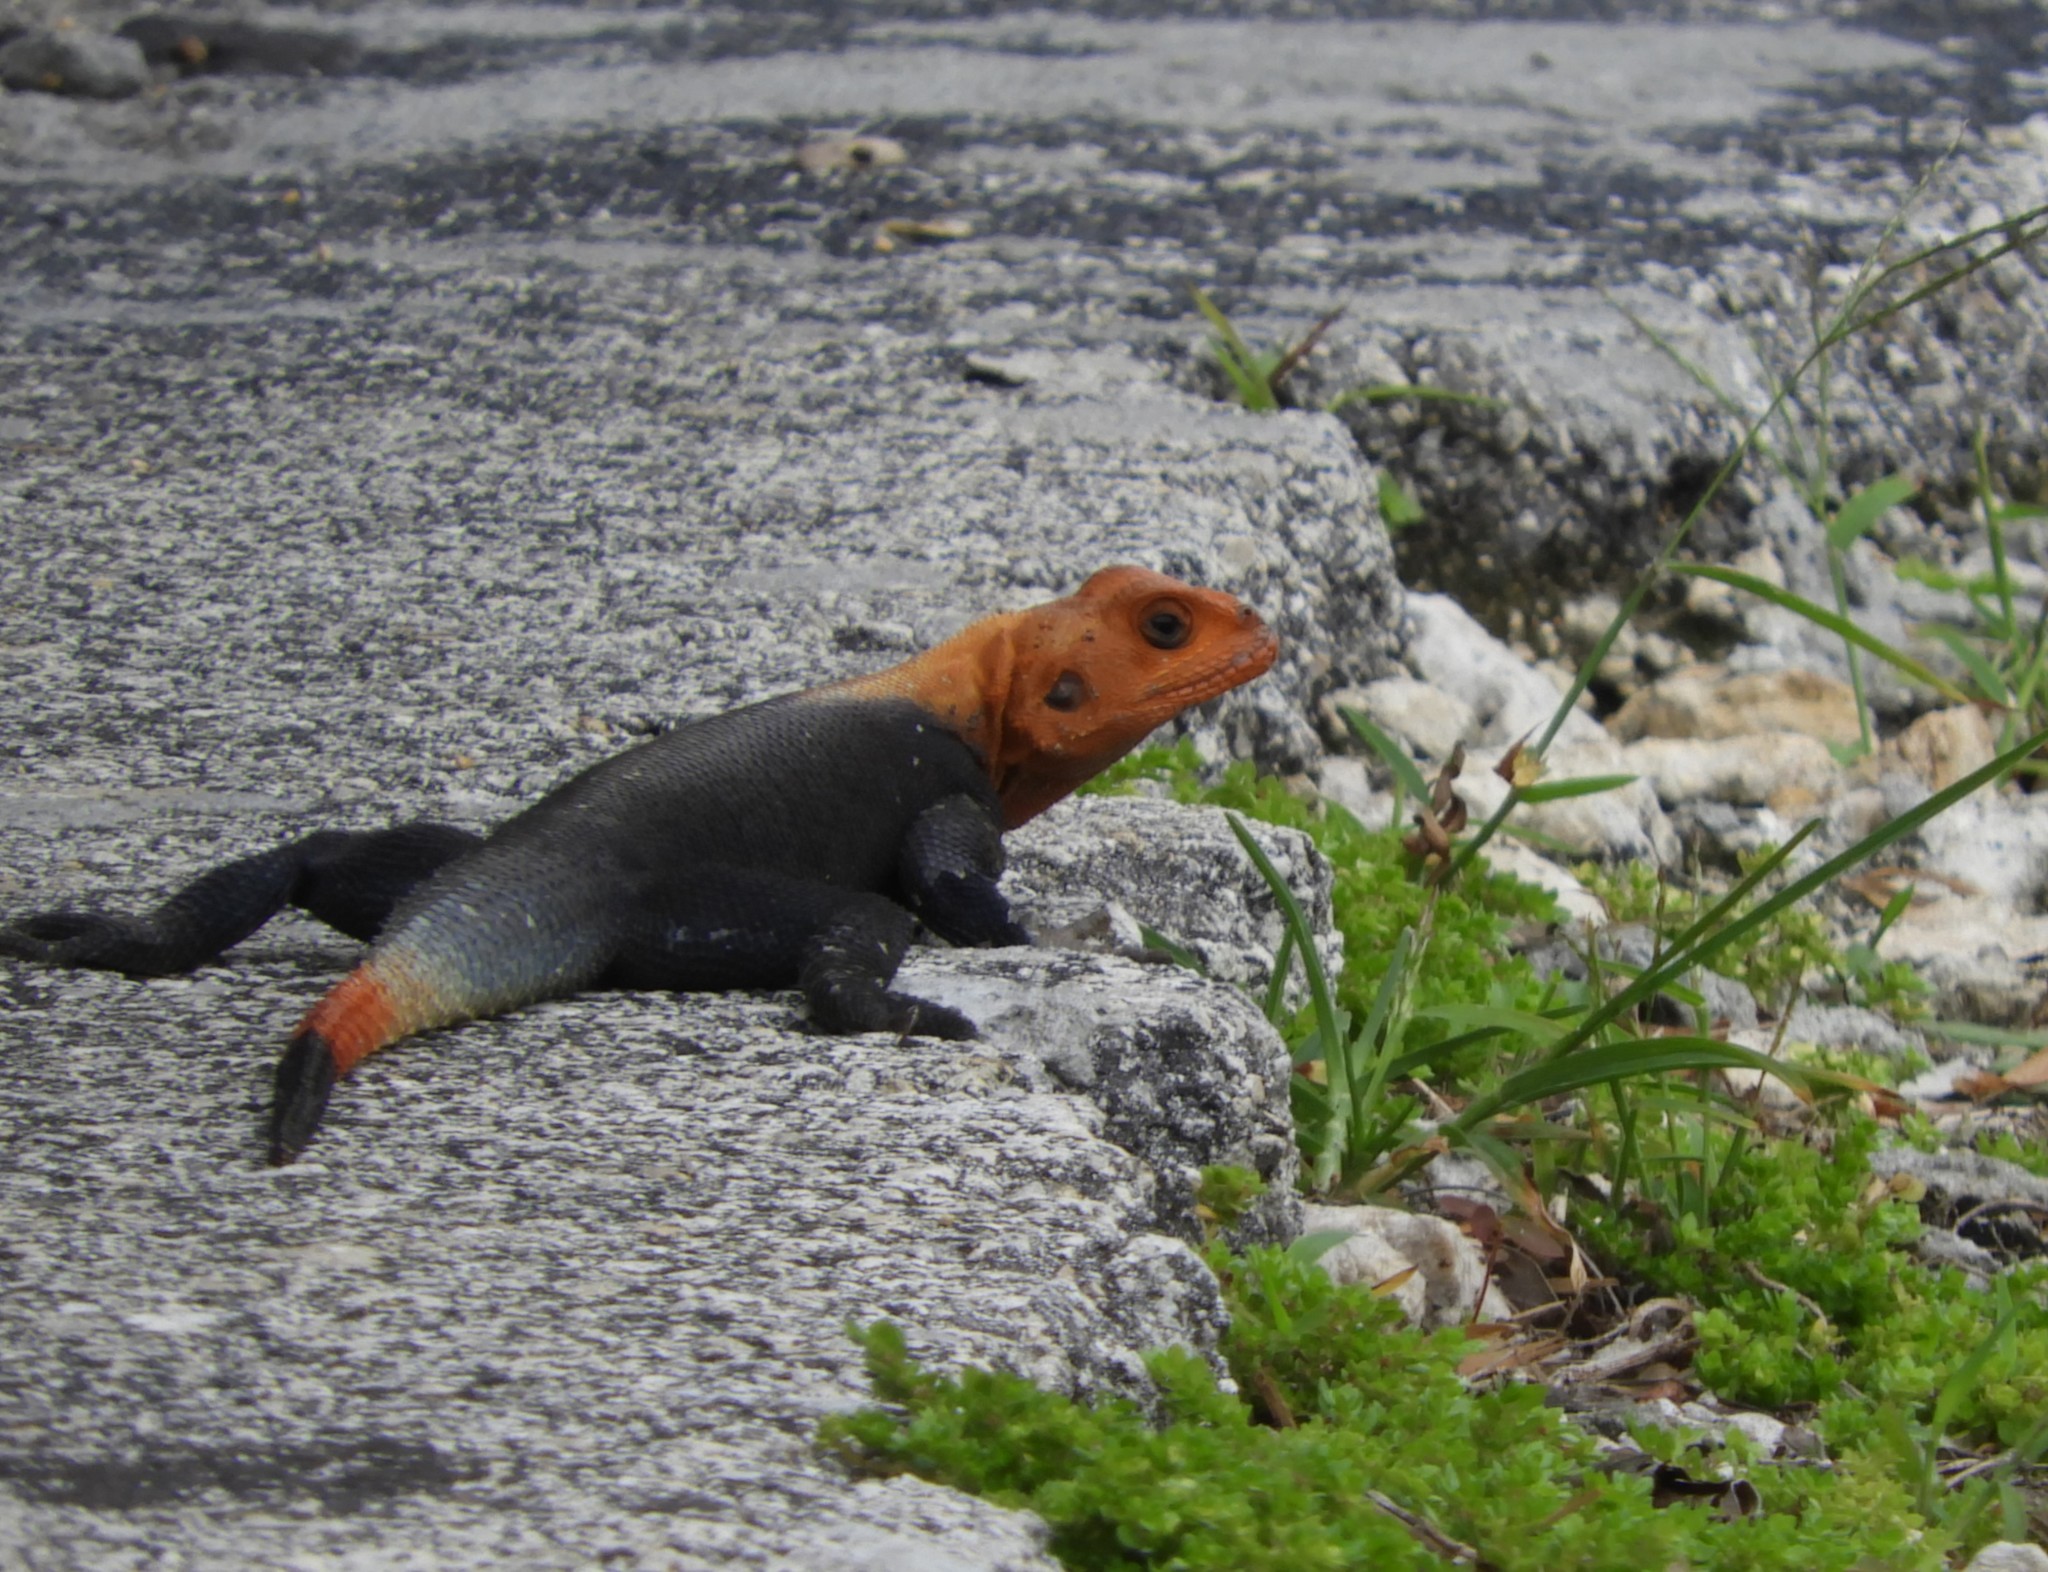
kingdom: Animalia
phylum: Chordata
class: Squamata
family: Agamidae
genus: Agama
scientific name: Agama picticauda
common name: Red-headed agama
